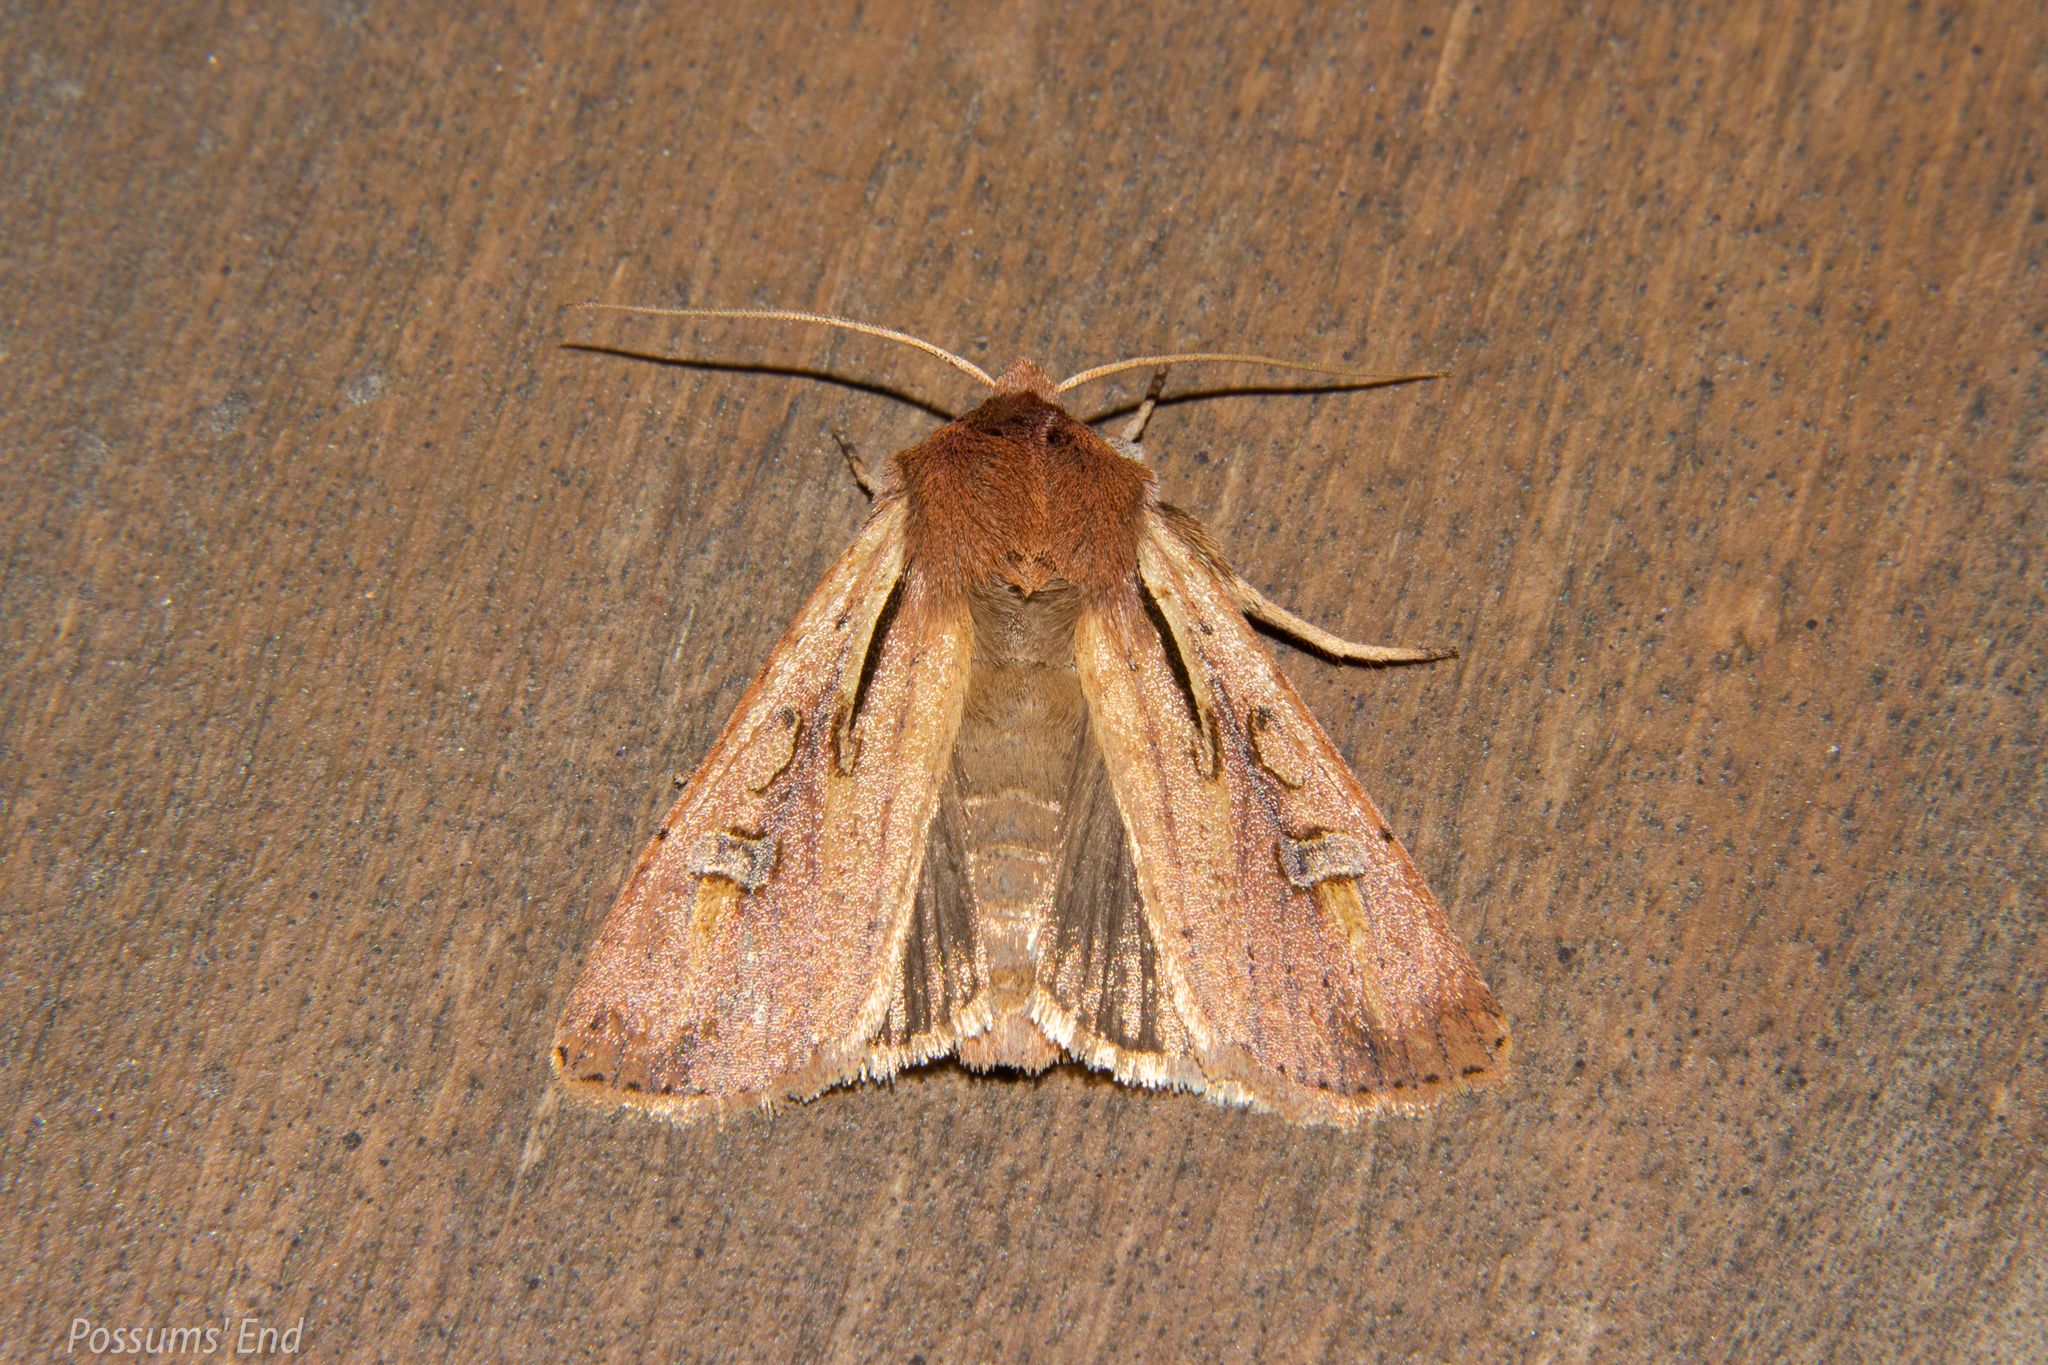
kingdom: Animalia
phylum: Arthropoda
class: Insecta
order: Lepidoptera
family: Noctuidae
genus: Ichneutica
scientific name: Ichneutica atristriga
